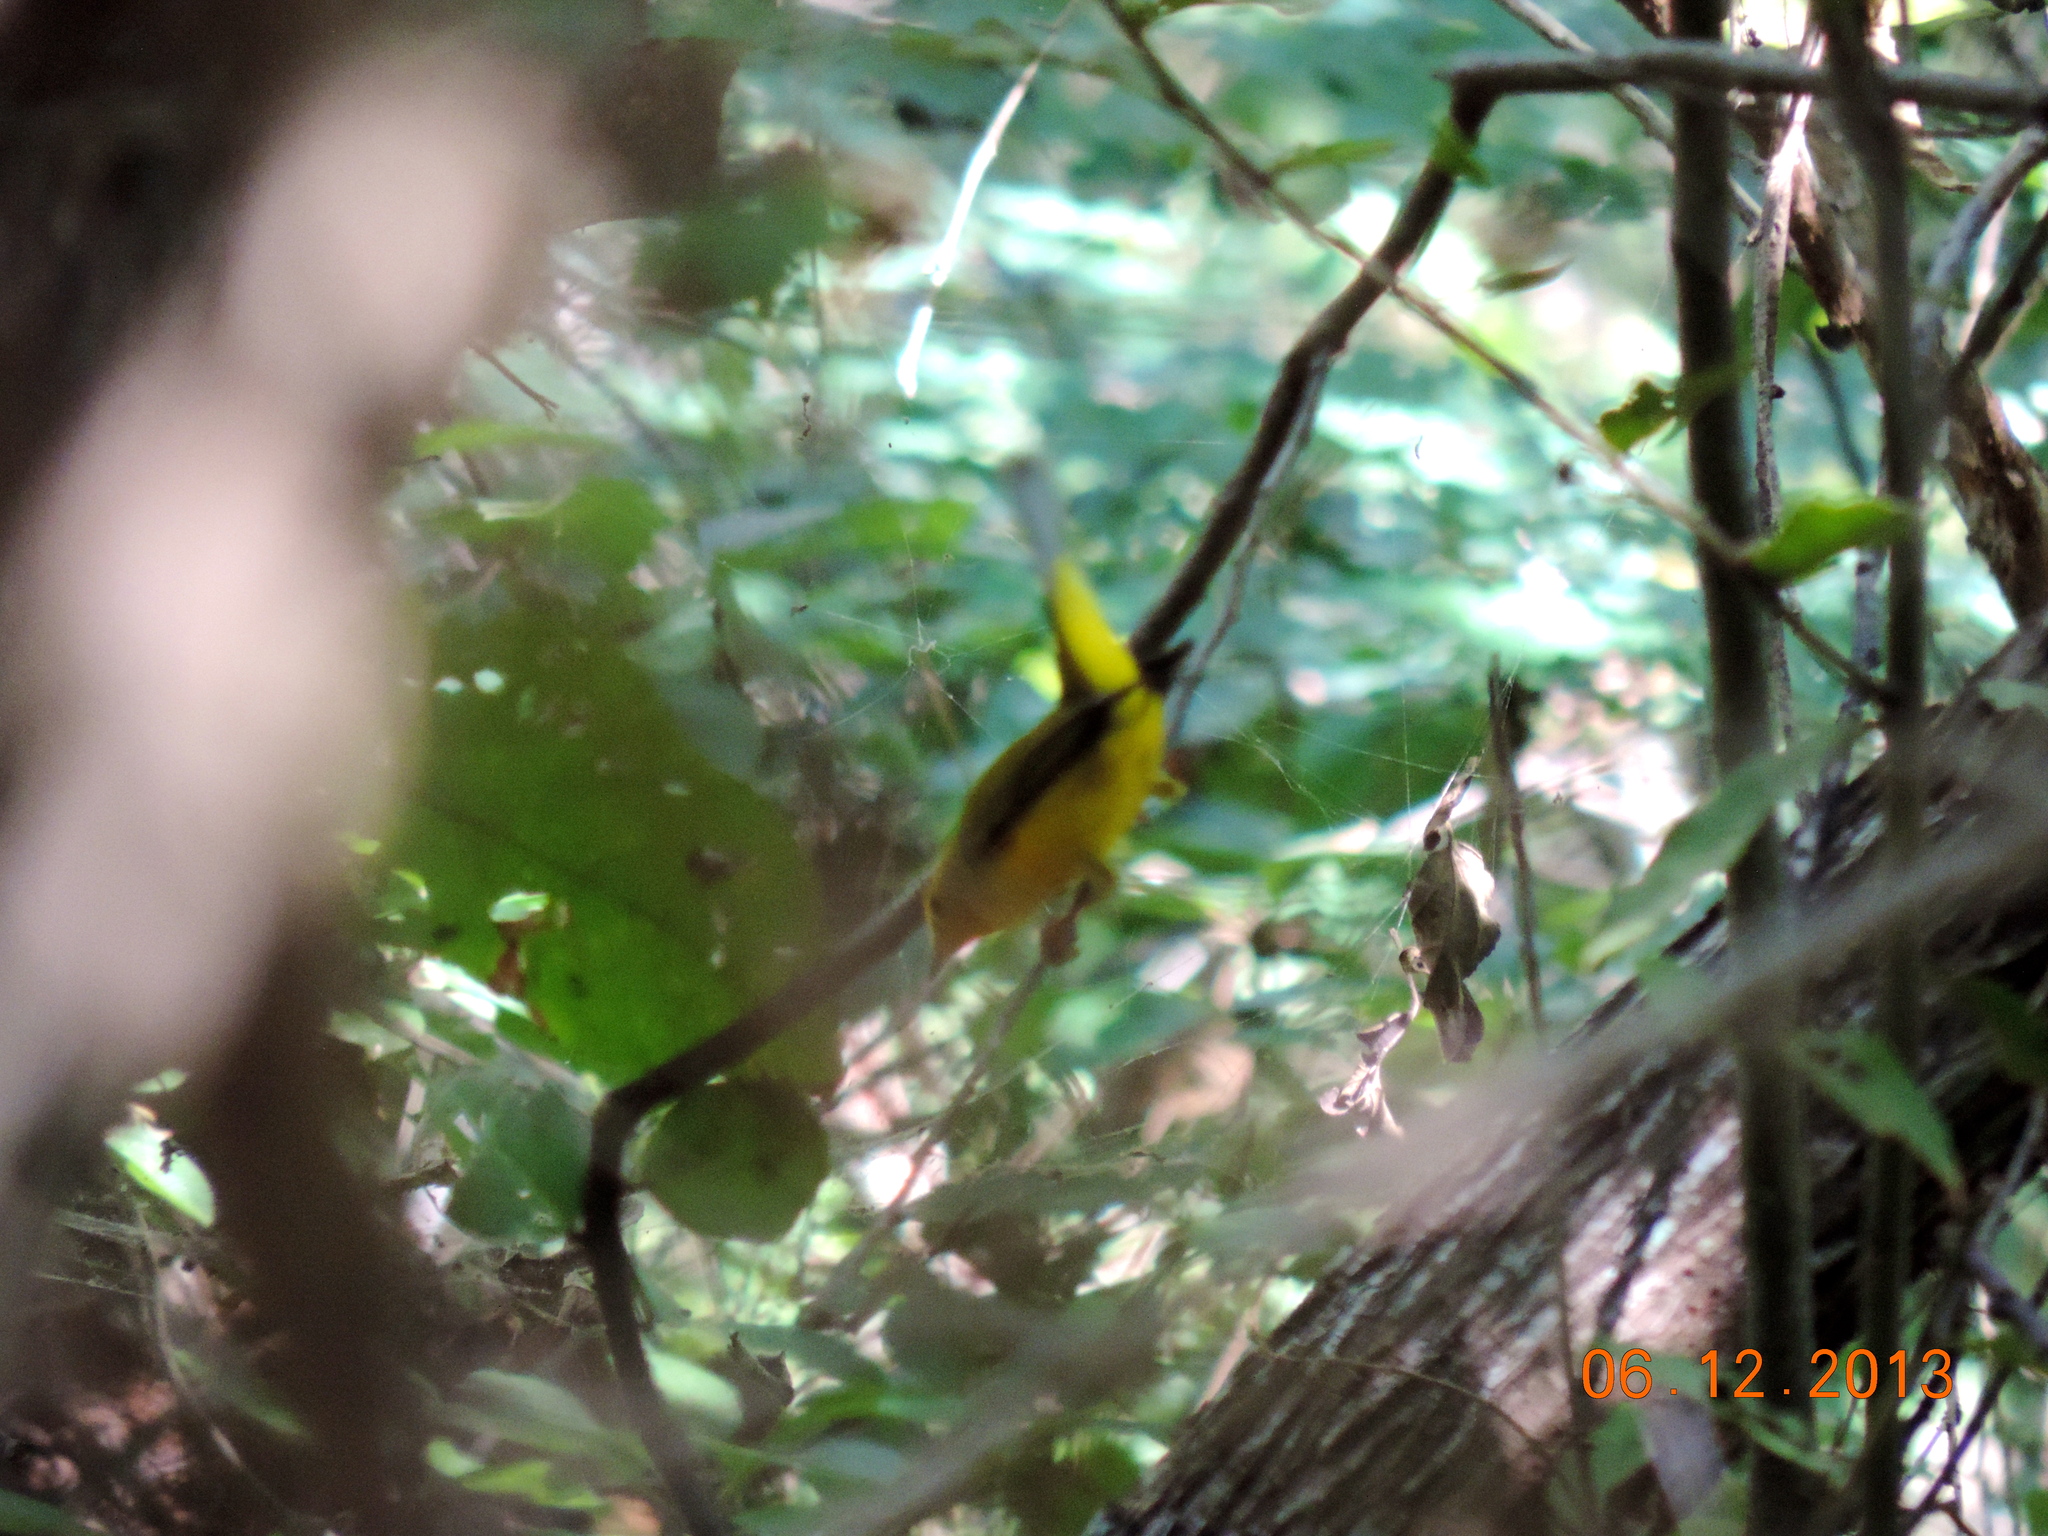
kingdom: Animalia
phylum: Chordata
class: Aves
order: Passeriformes
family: Parulidae
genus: Cardellina
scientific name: Cardellina pusilla
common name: Wilson's warbler
